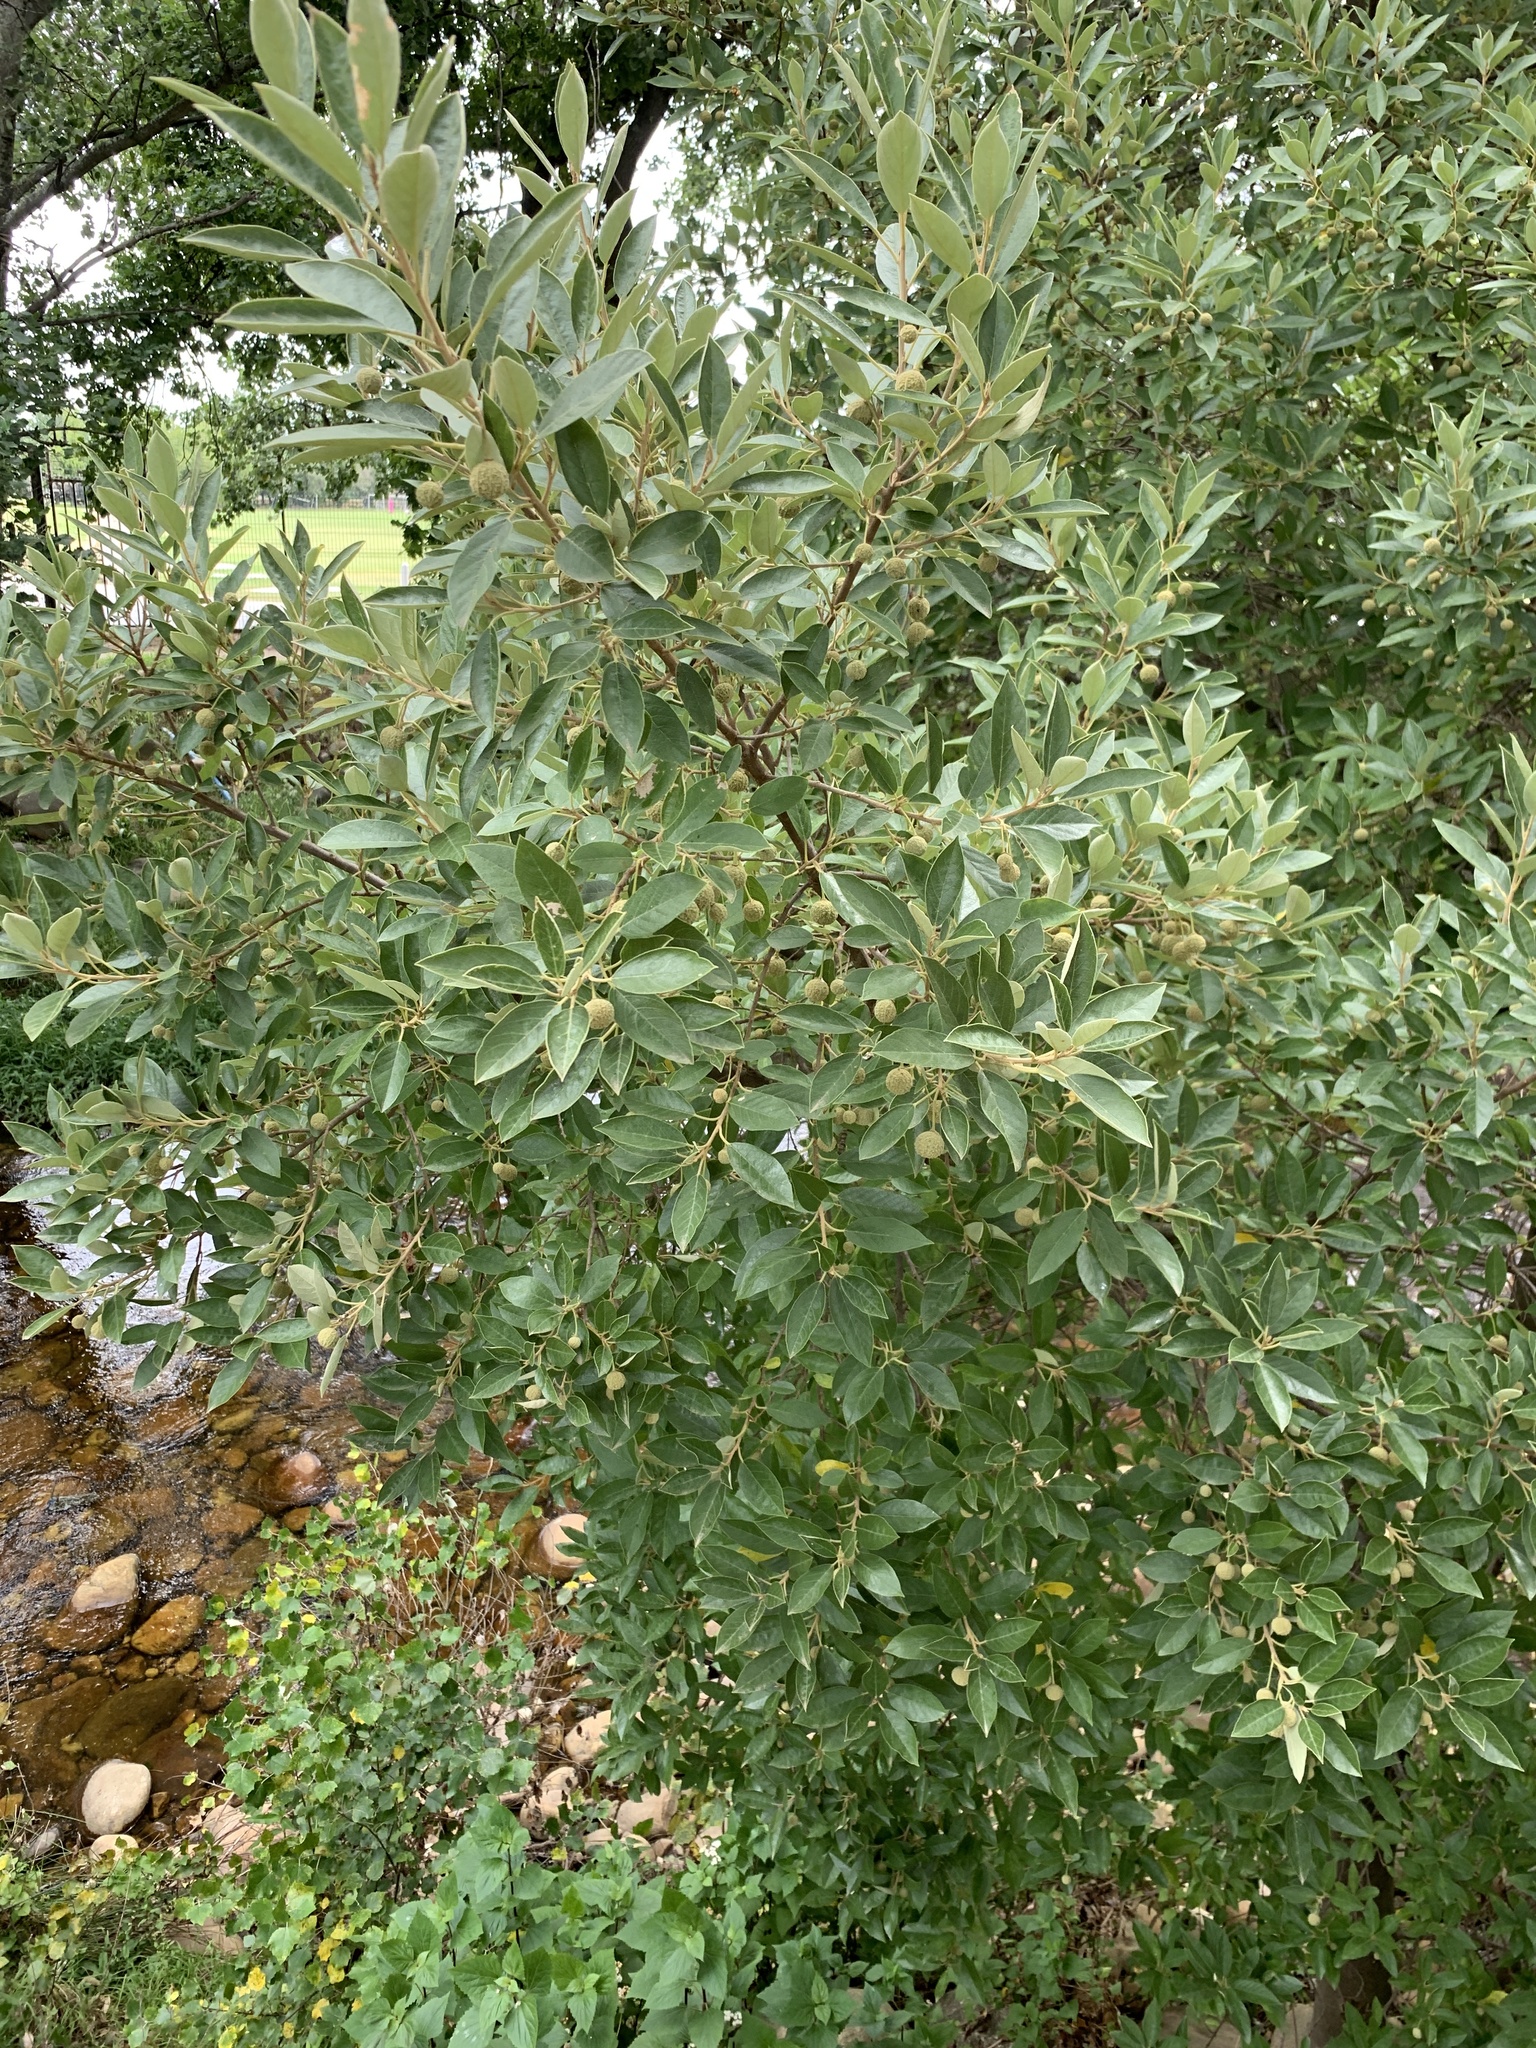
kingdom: Plantae
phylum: Tracheophyta
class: Magnoliopsida
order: Malpighiales
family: Achariaceae
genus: Kiggelaria
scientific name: Kiggelaria africana
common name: Wild peach
